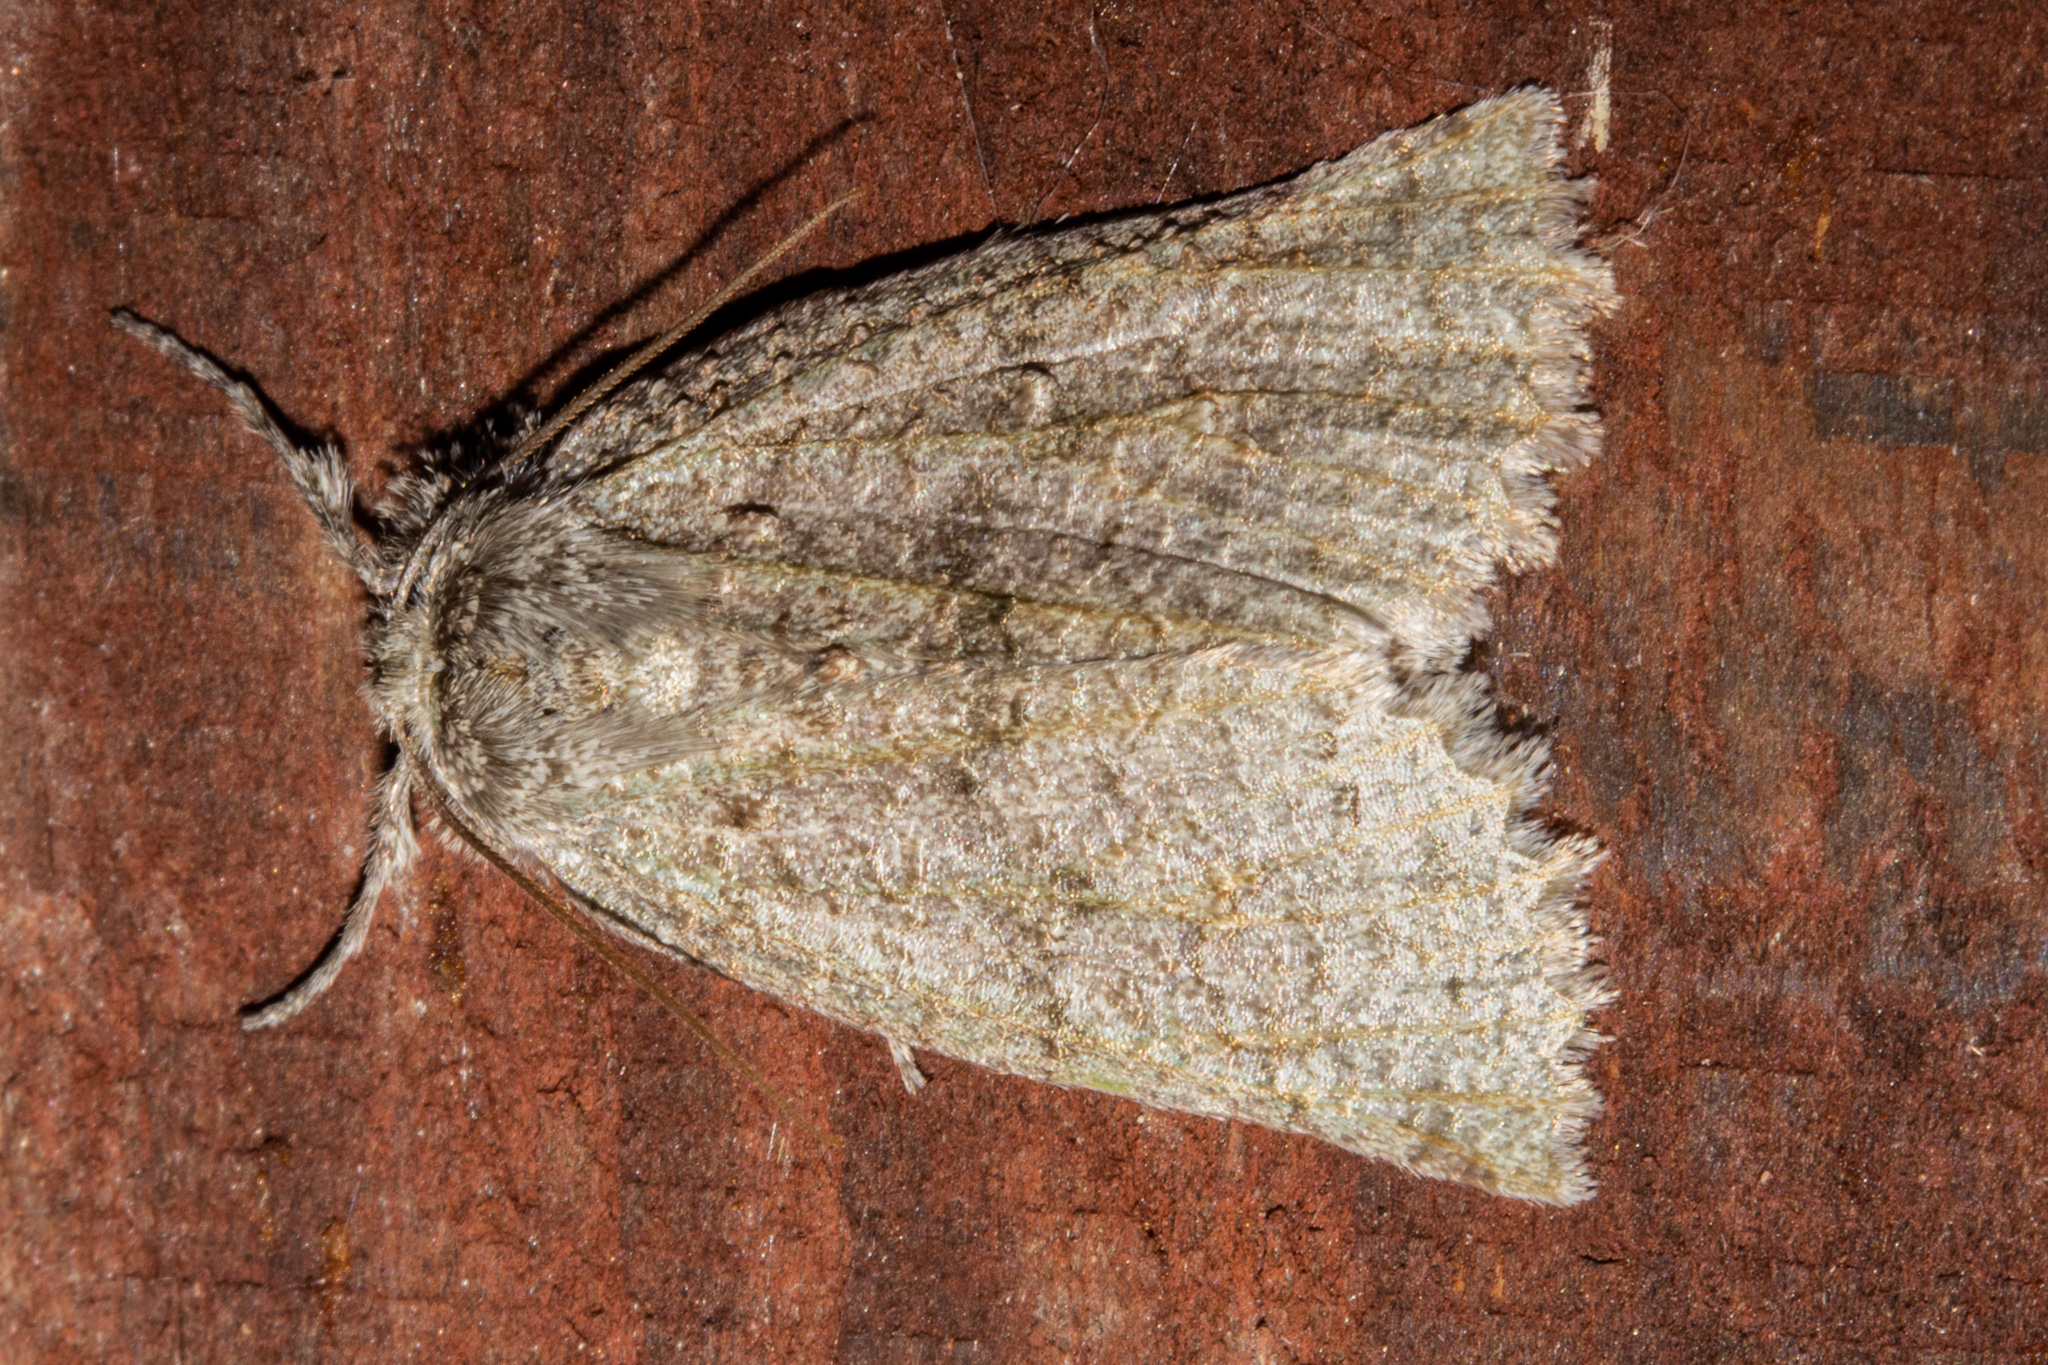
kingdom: Animalia
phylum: Arthropoda
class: Insecta
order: Lepidoptera
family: Geometridae
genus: Declana
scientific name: Declana floccosa
